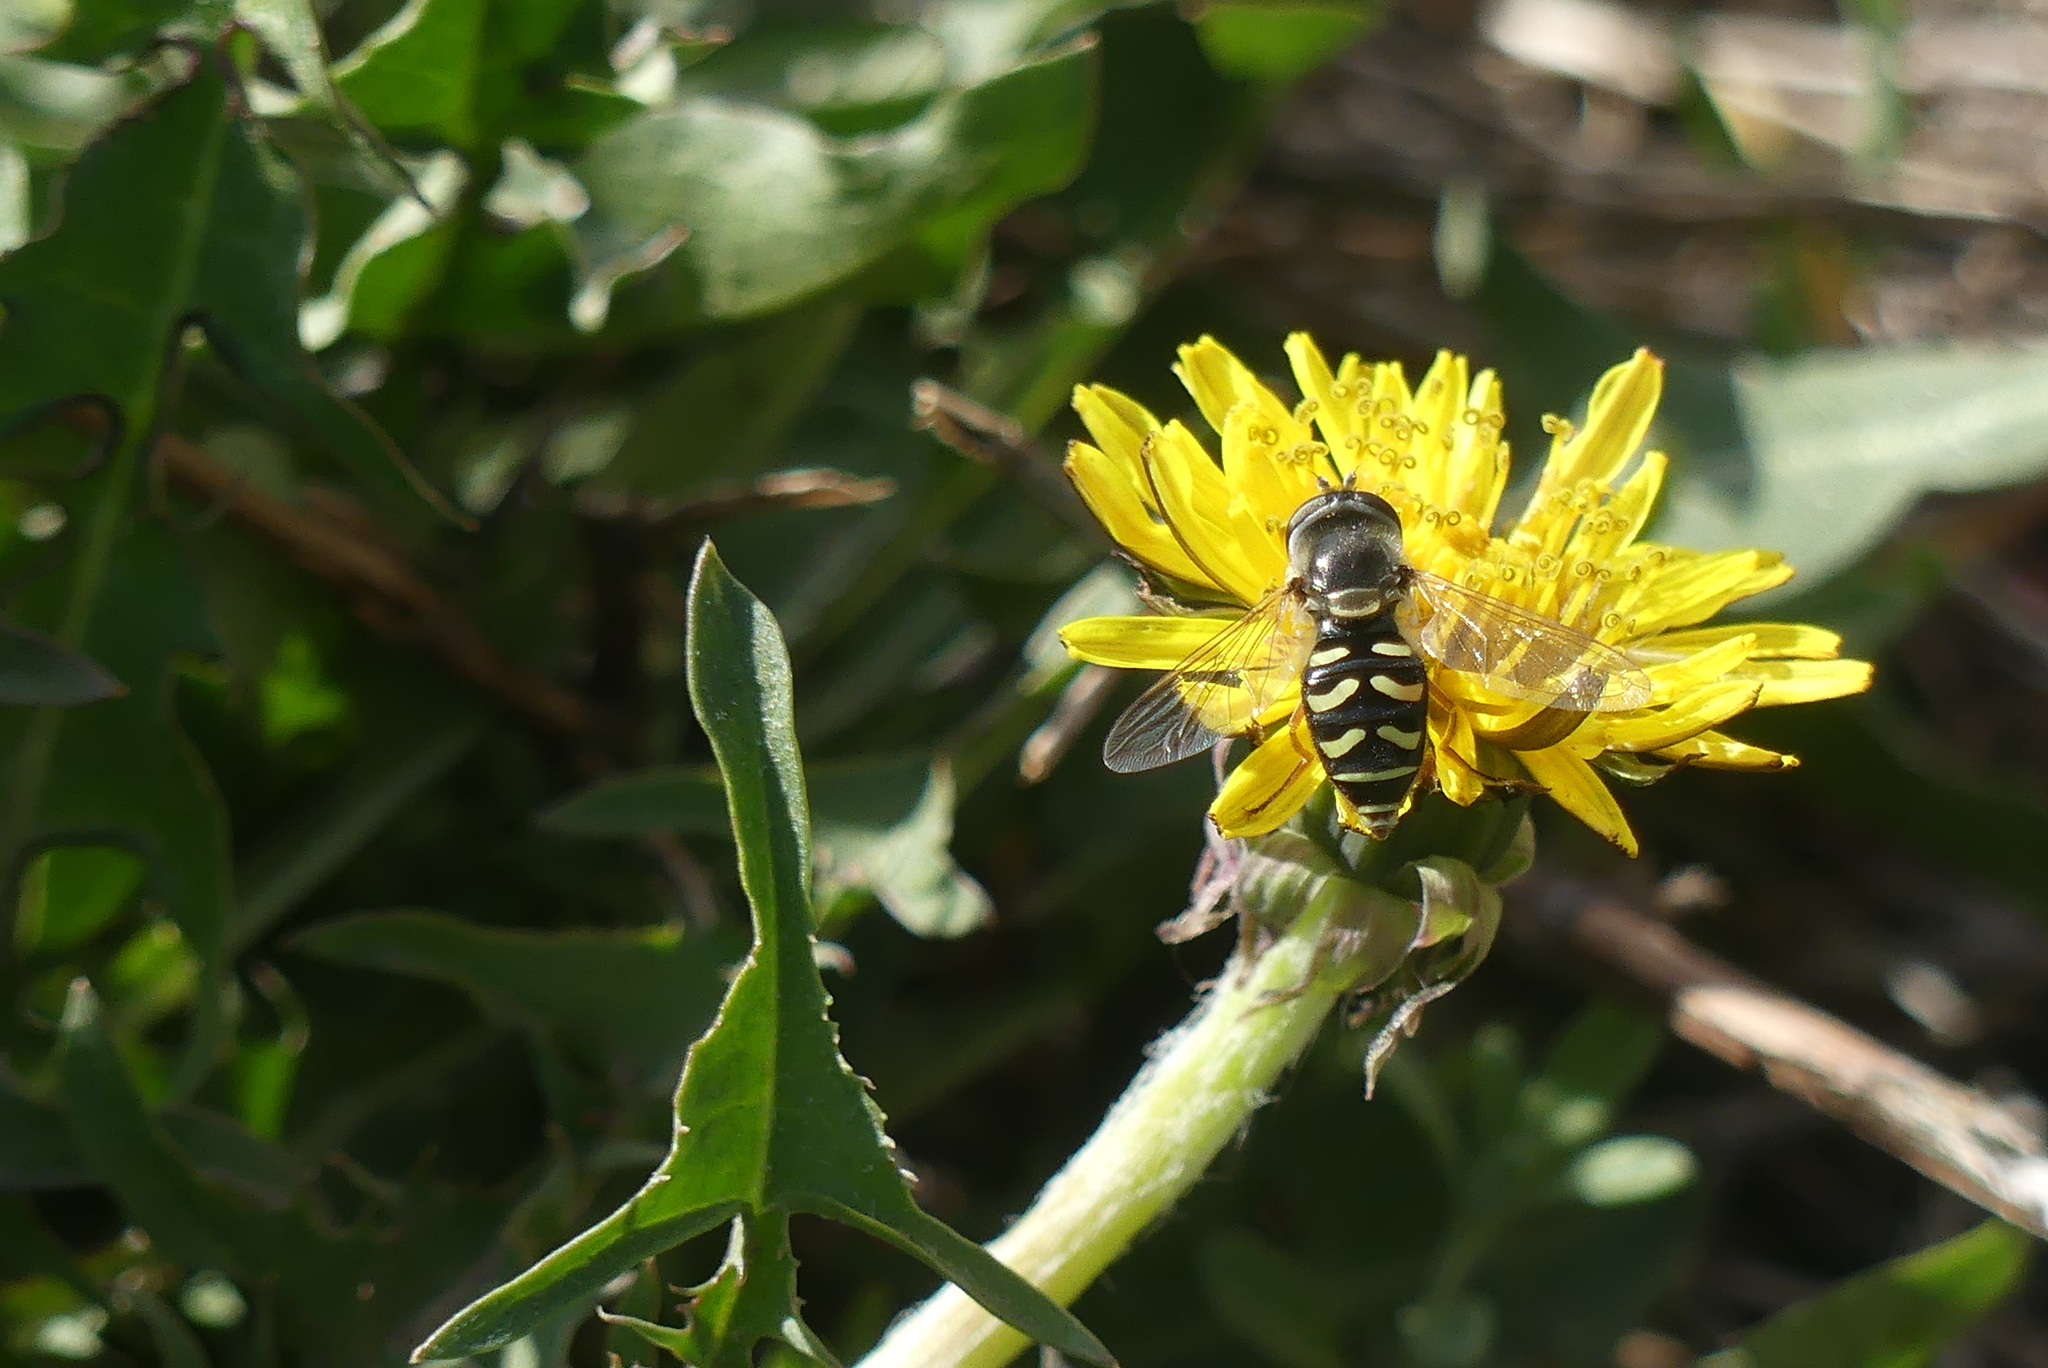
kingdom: Animalia
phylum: Arthropoda
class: Insecta
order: Diptera
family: Syrphidae
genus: Eupeodes
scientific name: Eupeodes volucris
